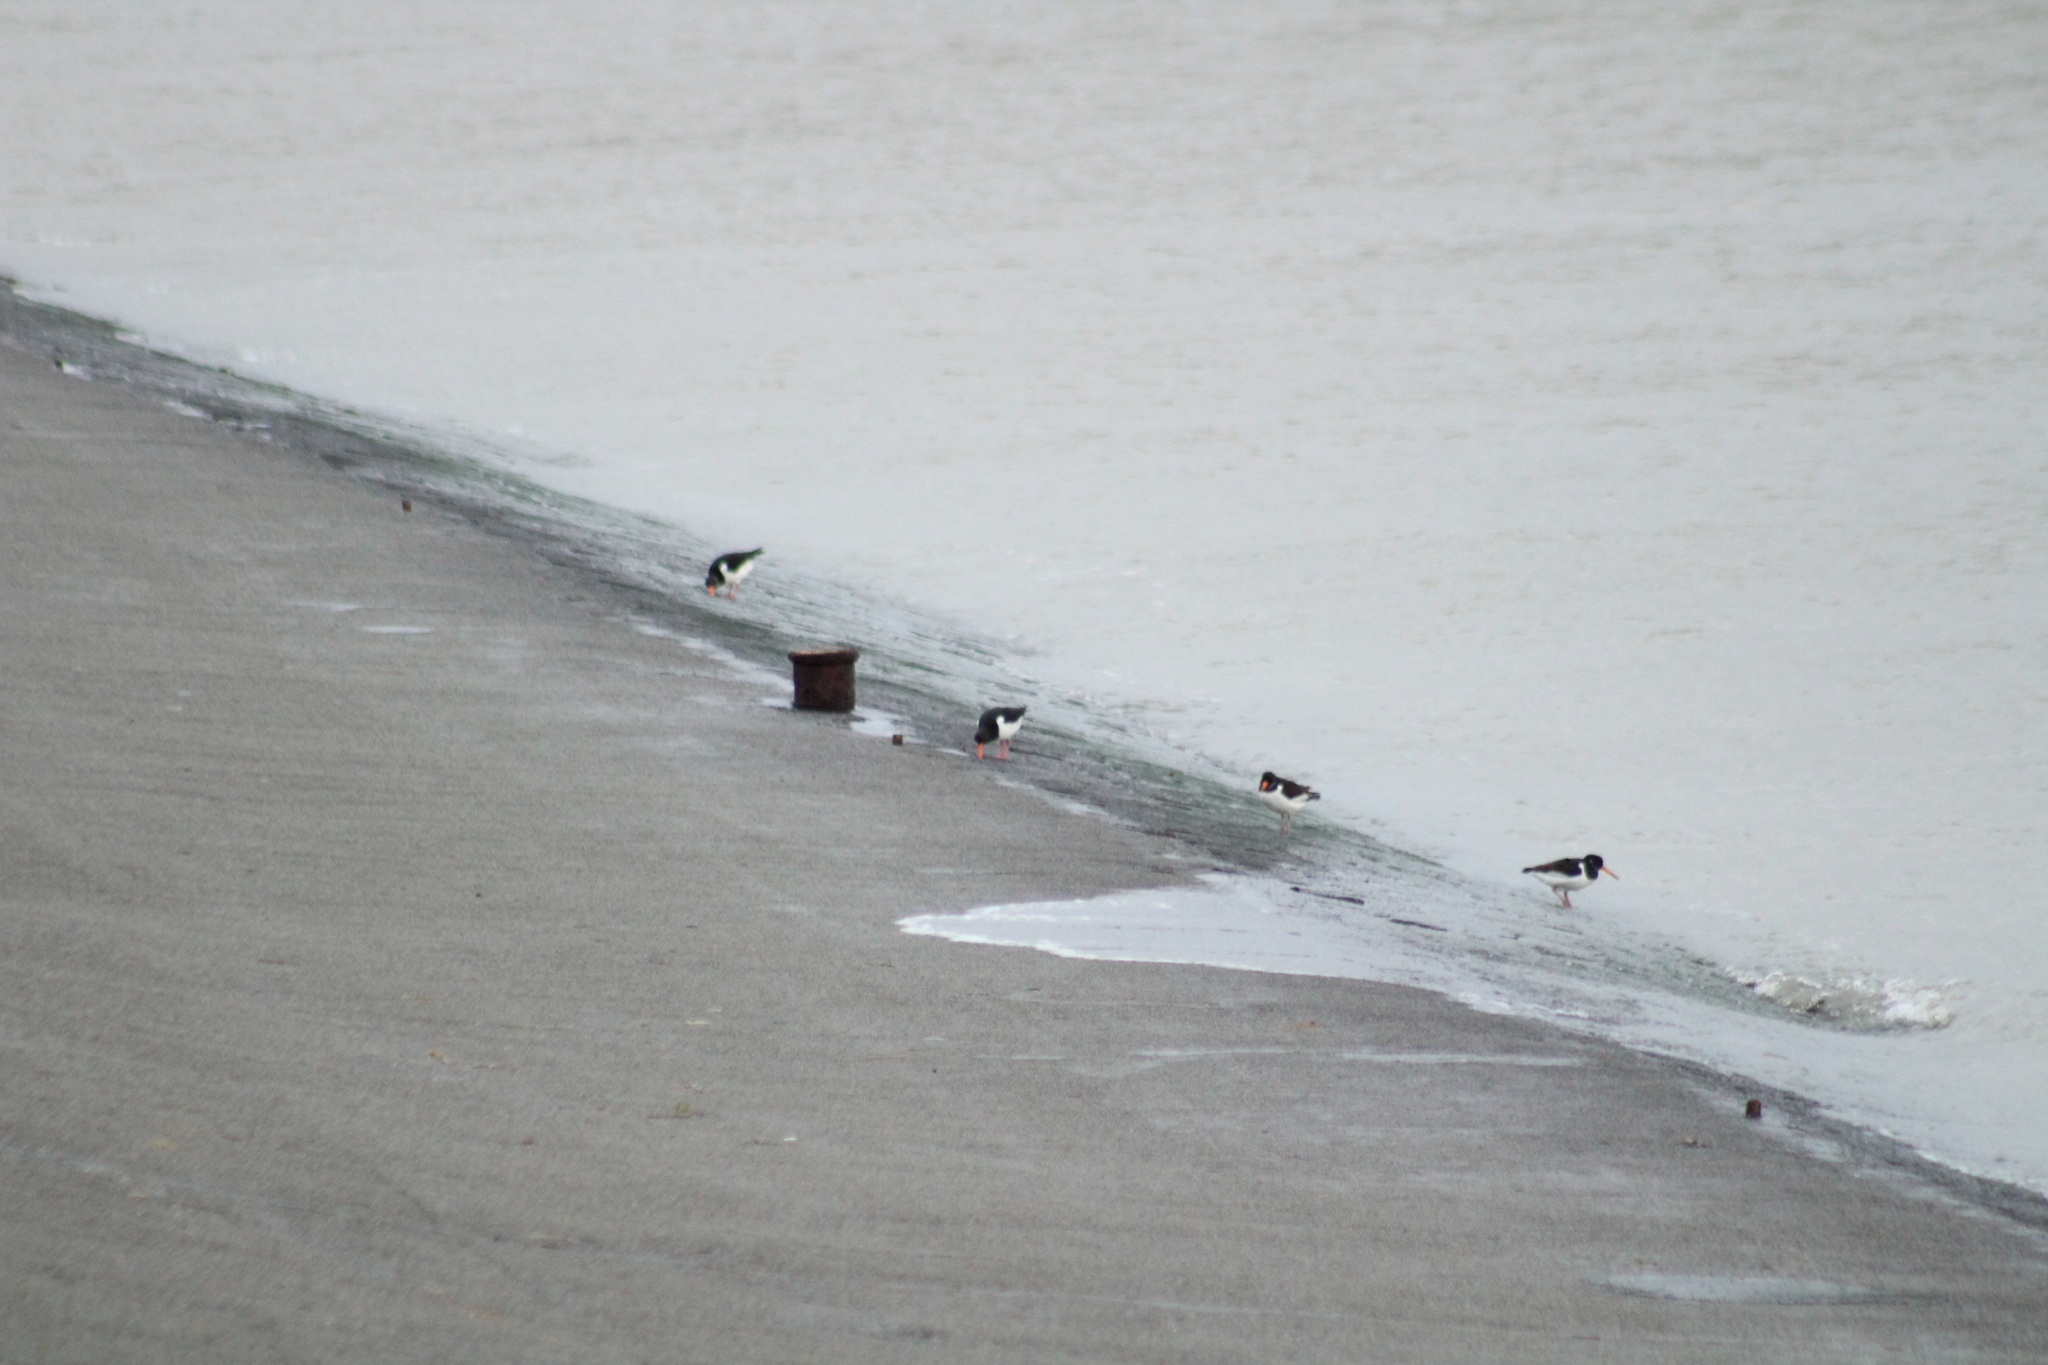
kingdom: Animalia
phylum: Chordata
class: Aves
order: Charadriiformes
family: Haematopodidae
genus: Haematopus
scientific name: Haematopus ostralegus
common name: Eurasian oystercatcher
